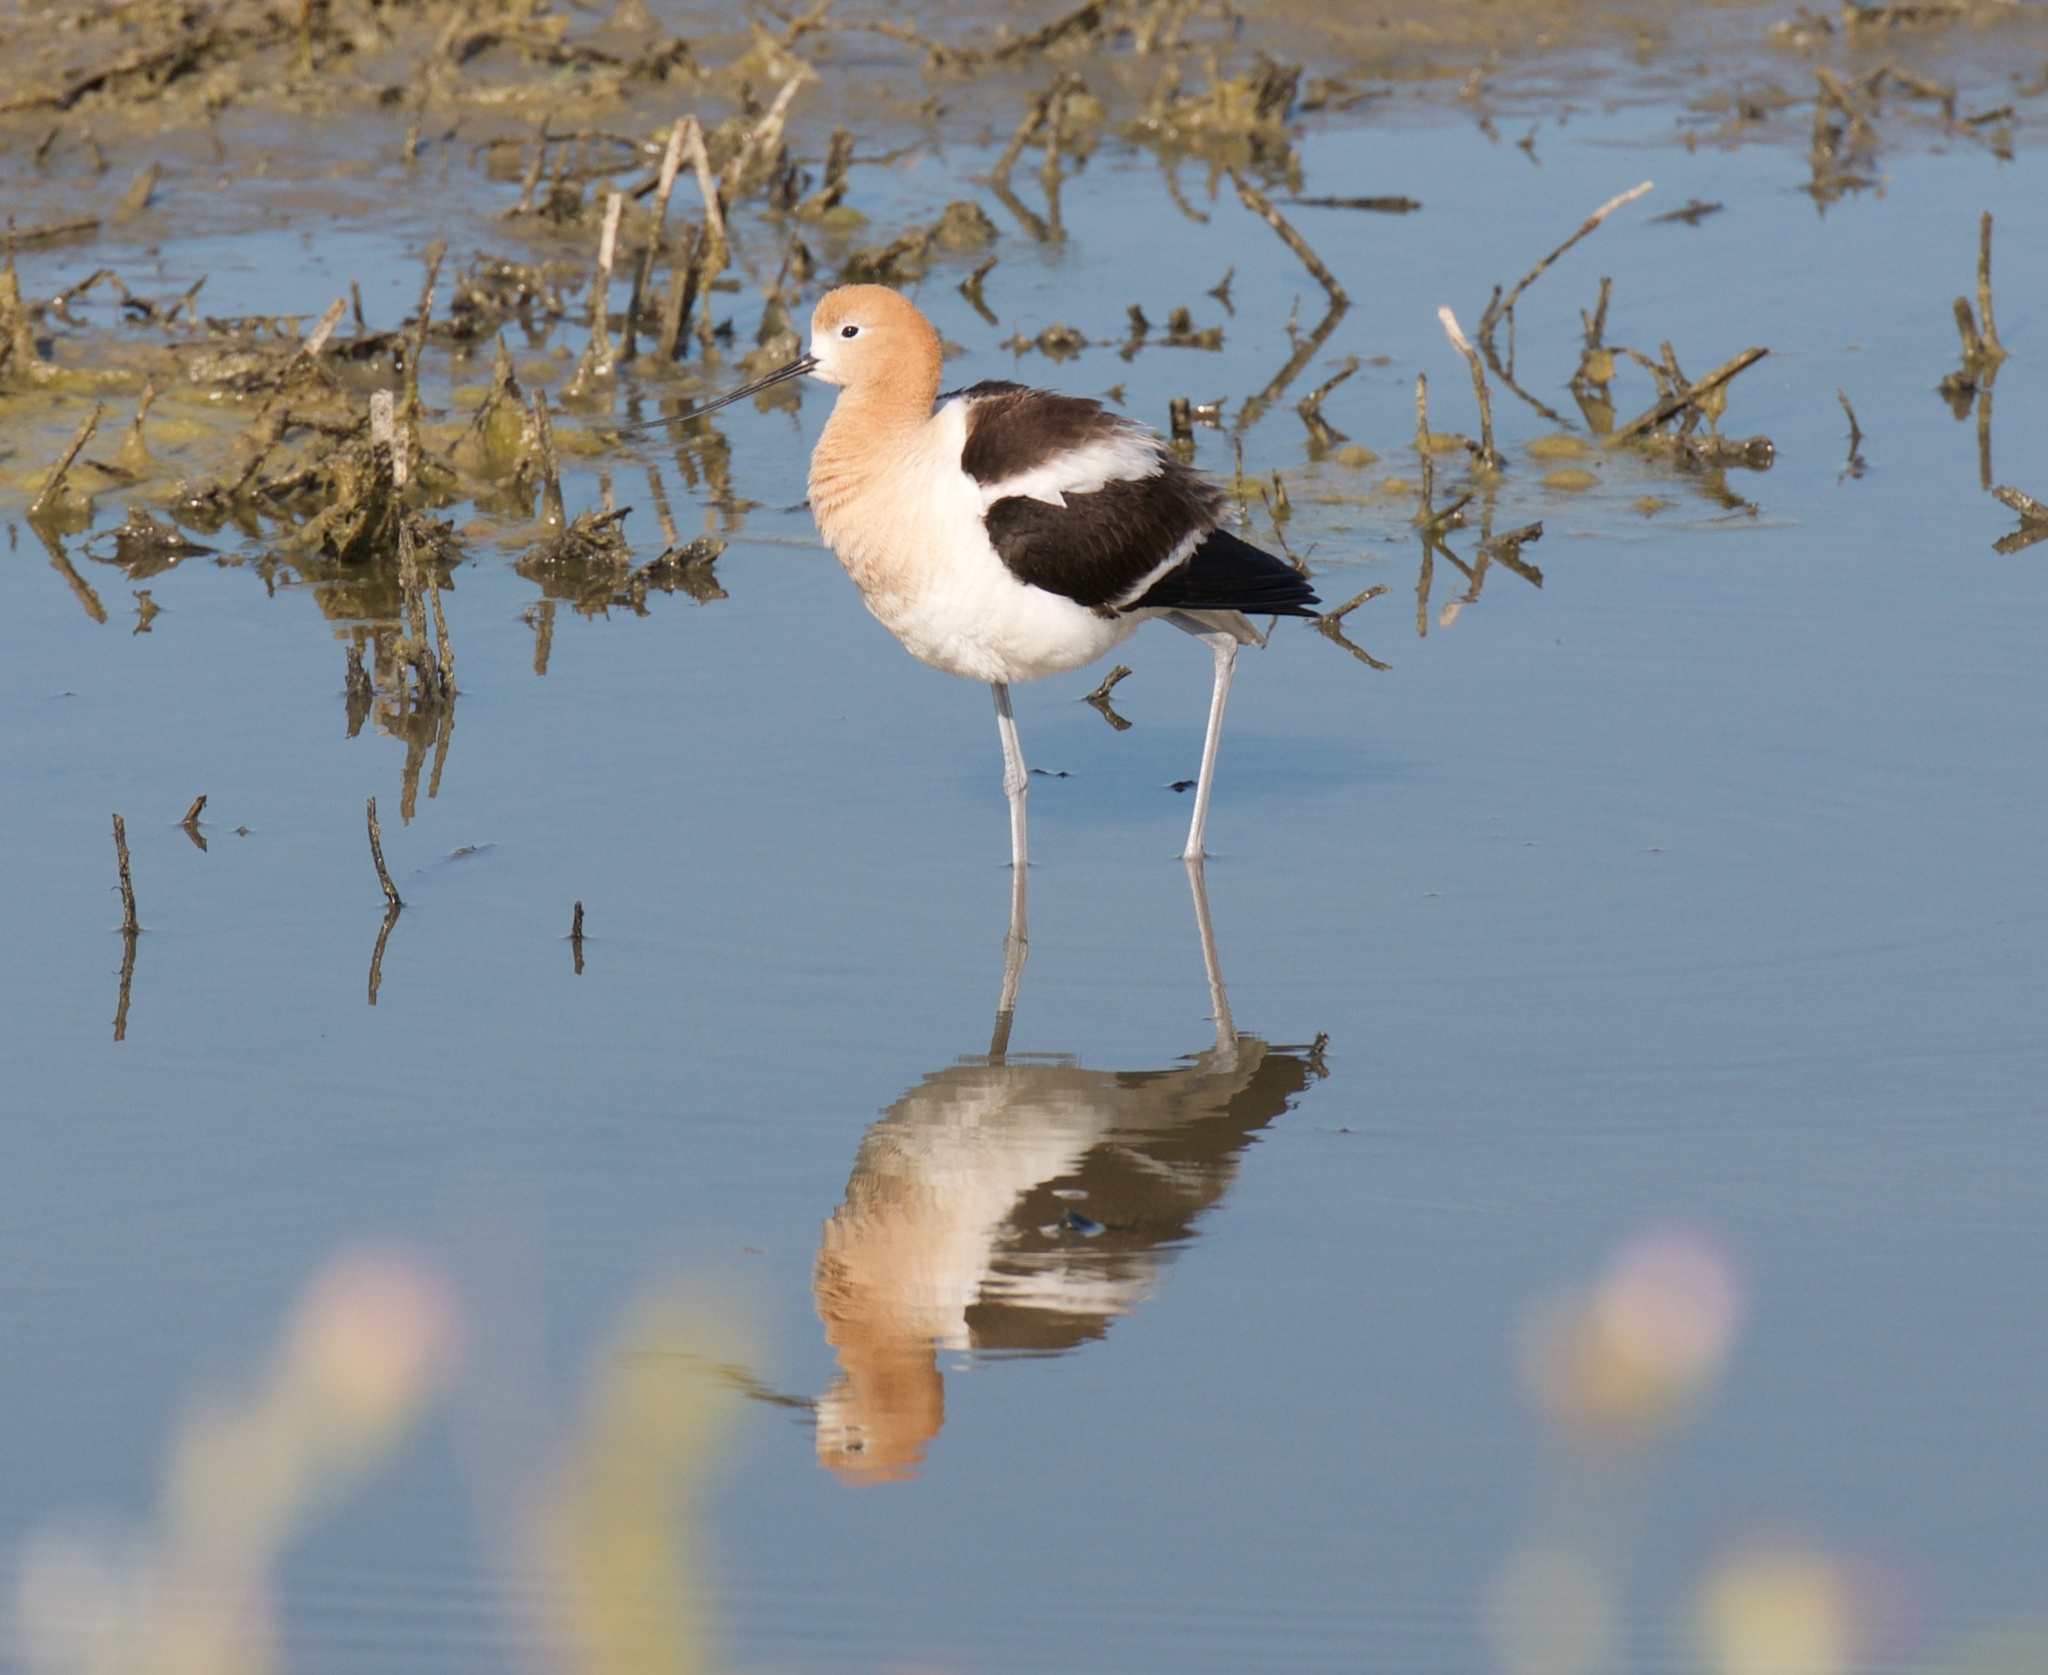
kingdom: Animalia
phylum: Chordata
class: Aves
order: Charadriiformes
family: Recurvirostridae
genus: Recurvirostra
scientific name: Recurvirostra americana
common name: American avocet
